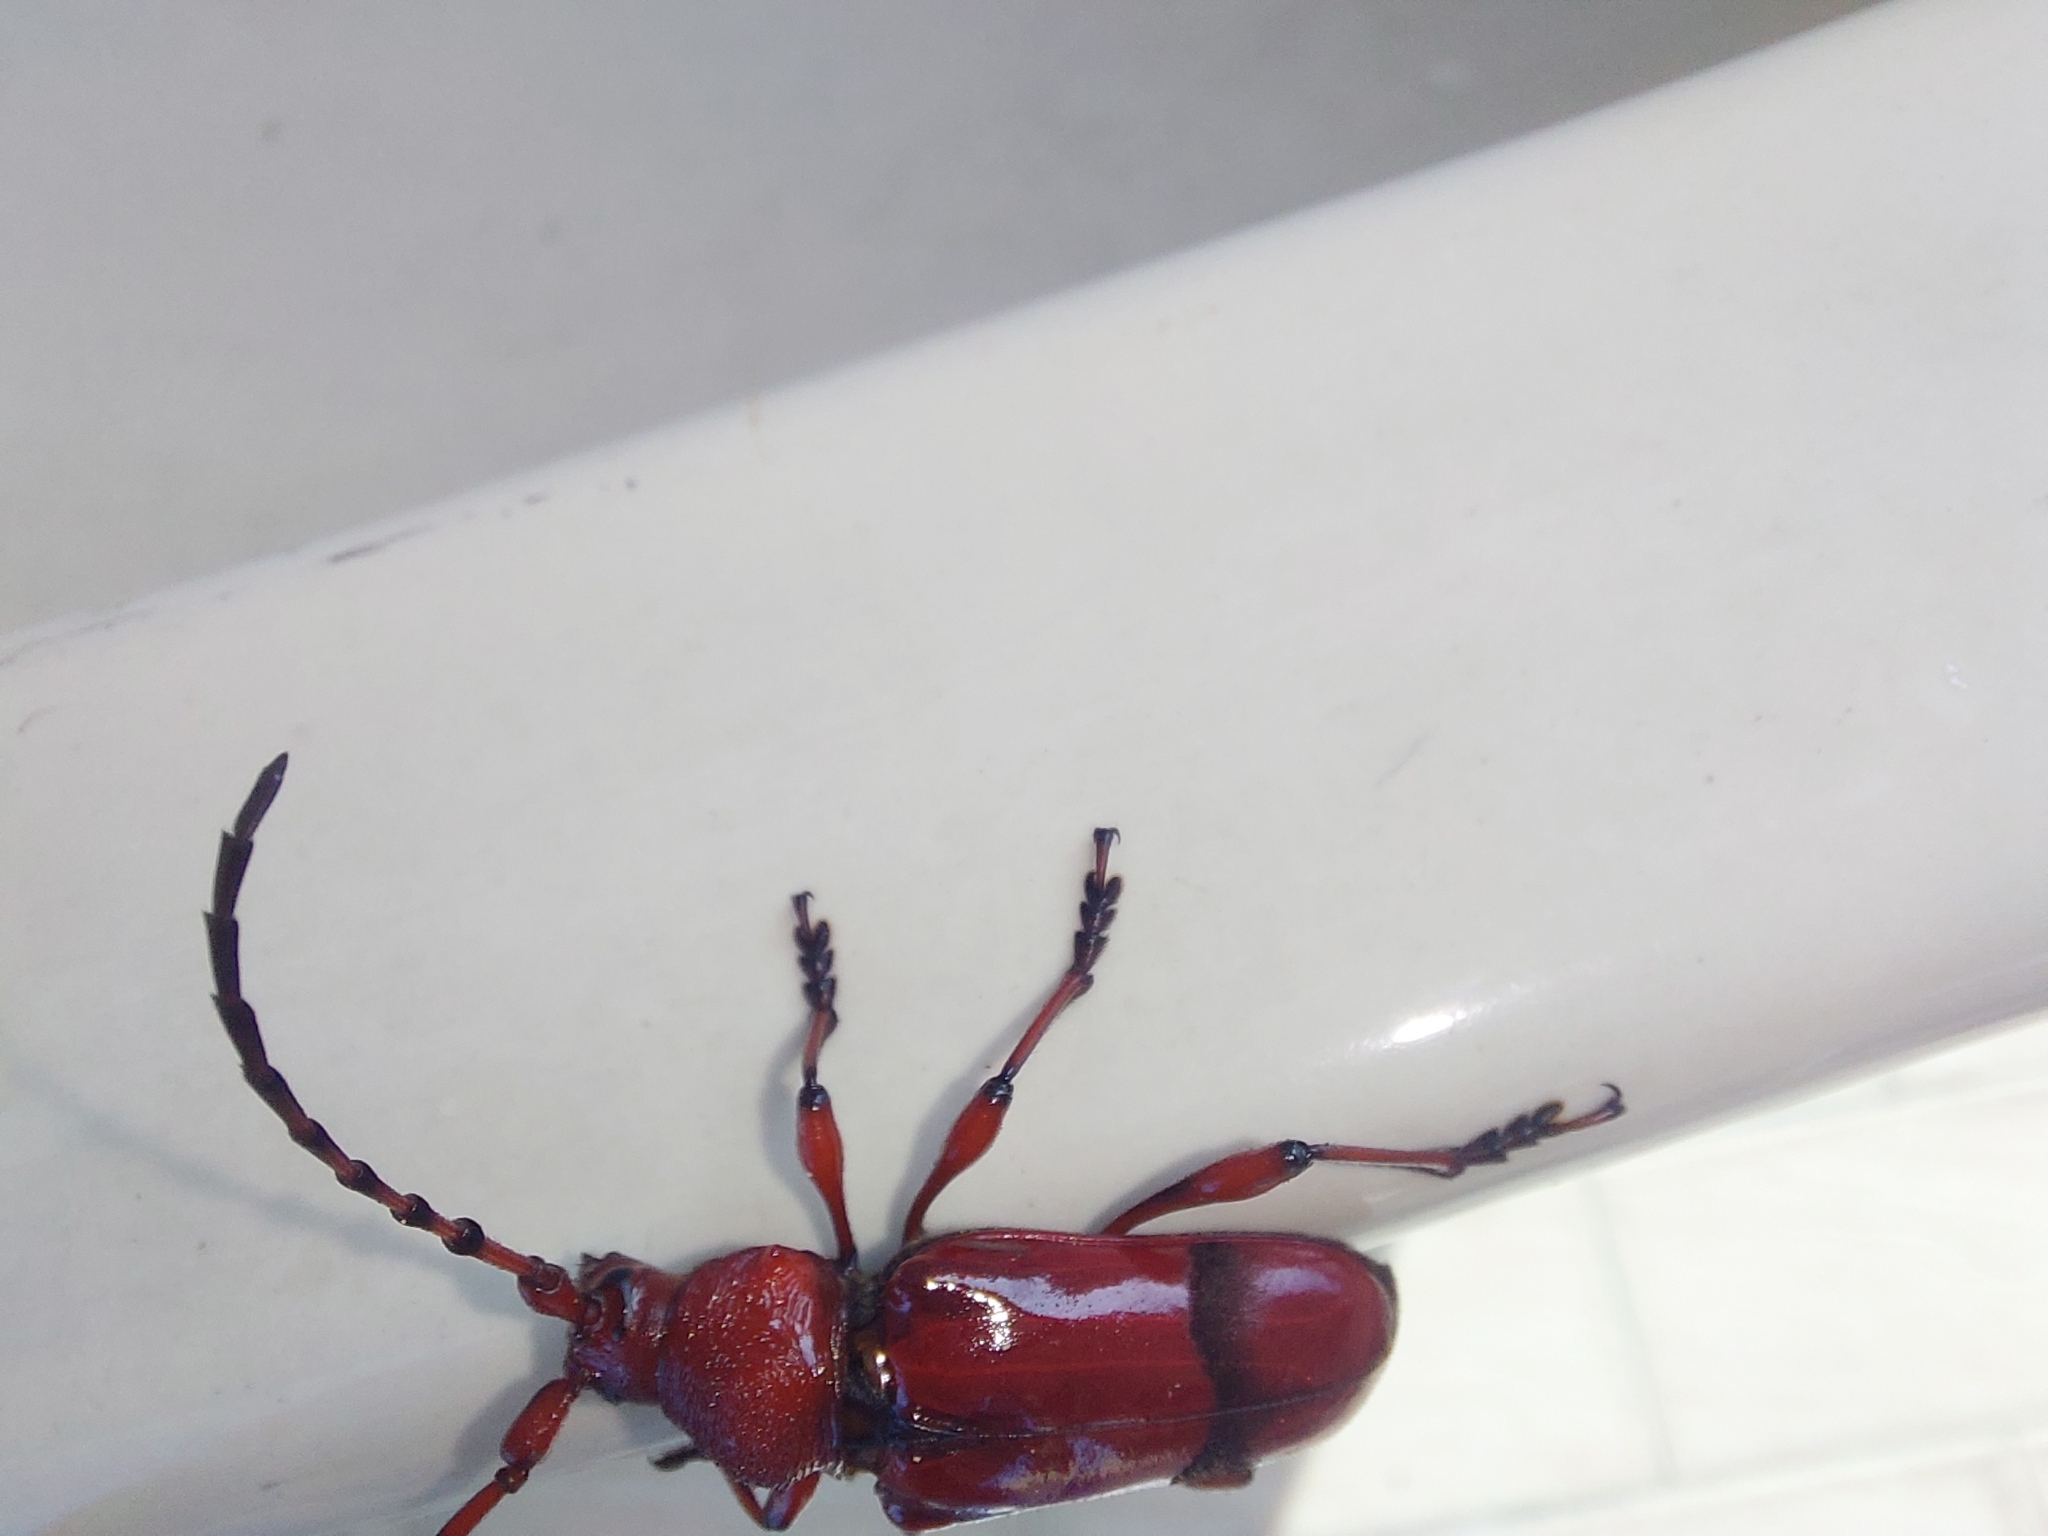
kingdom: Animalia
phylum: Arthropoda
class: Insecta
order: Coleoptera
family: Cerambycidae
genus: Dicelosternus
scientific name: Dicelosternus corallinus
